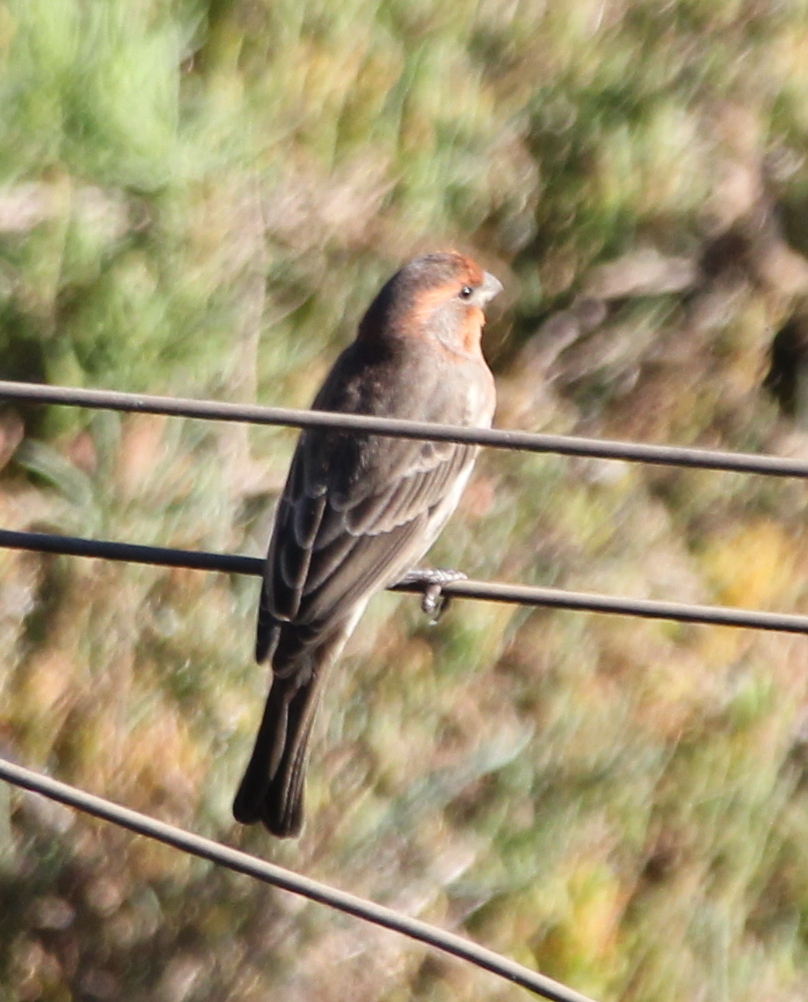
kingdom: Animalia
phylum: Chordata
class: Aves
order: Passeriformes
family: Fringillidae
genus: Haemorhous
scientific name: Haemorhous mexicanus
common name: House finch
